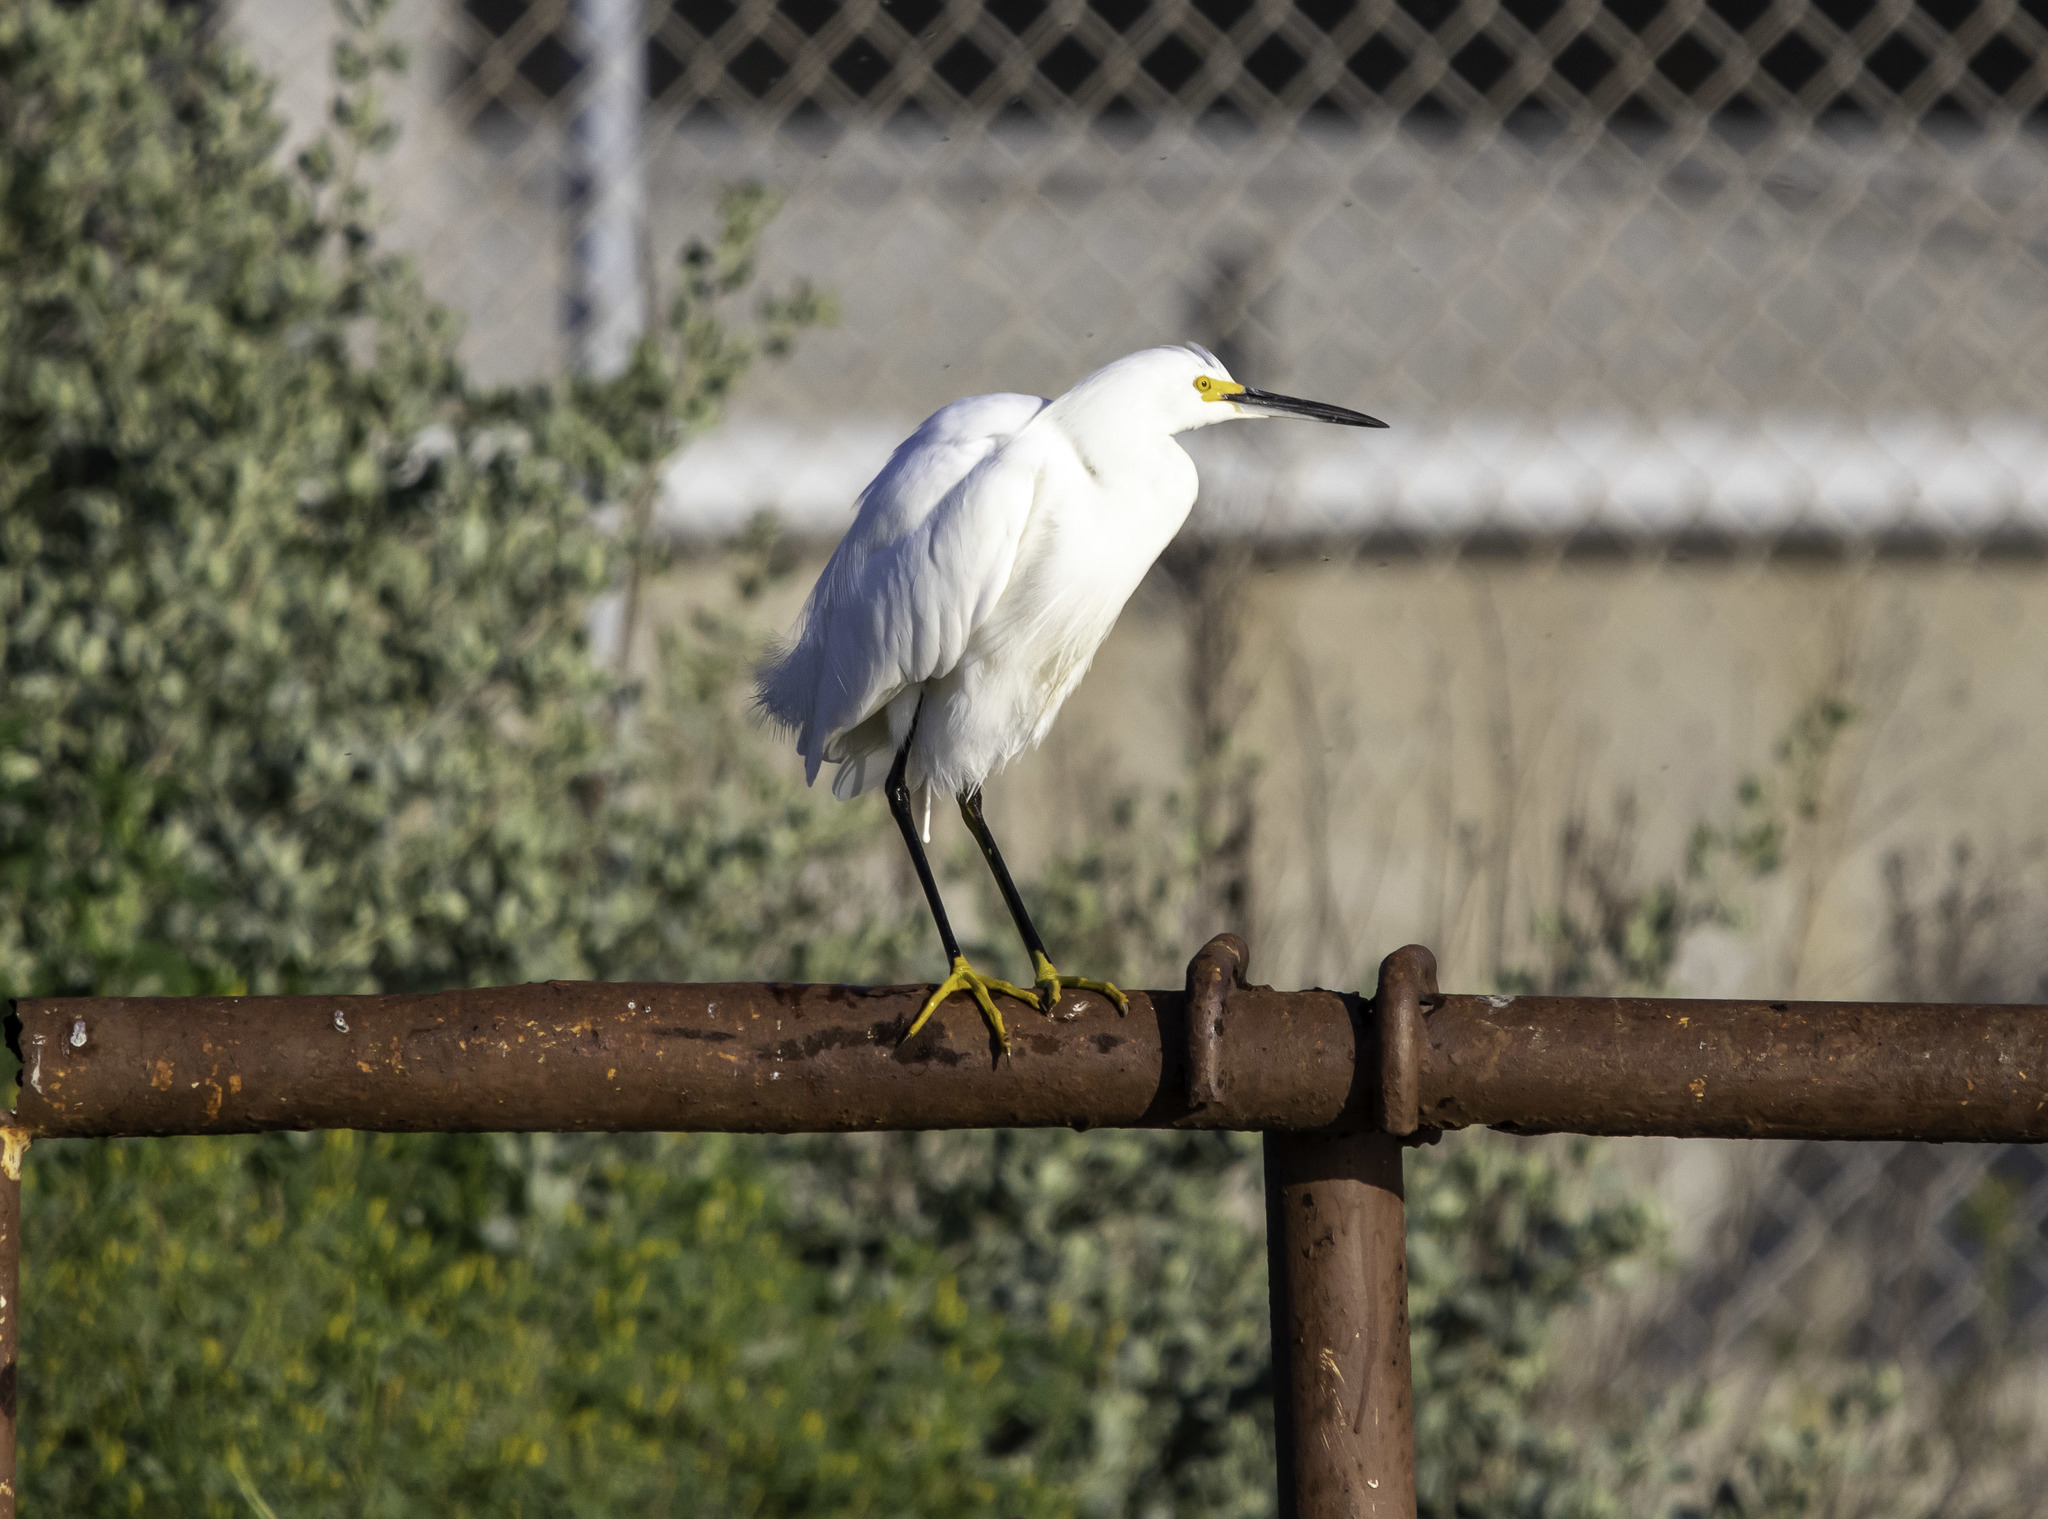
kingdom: Animalia
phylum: Chordata
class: Aves
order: Pelecaniformes
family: Ardeidae
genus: Egretta
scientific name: Egretta thula
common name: Snowy egret
